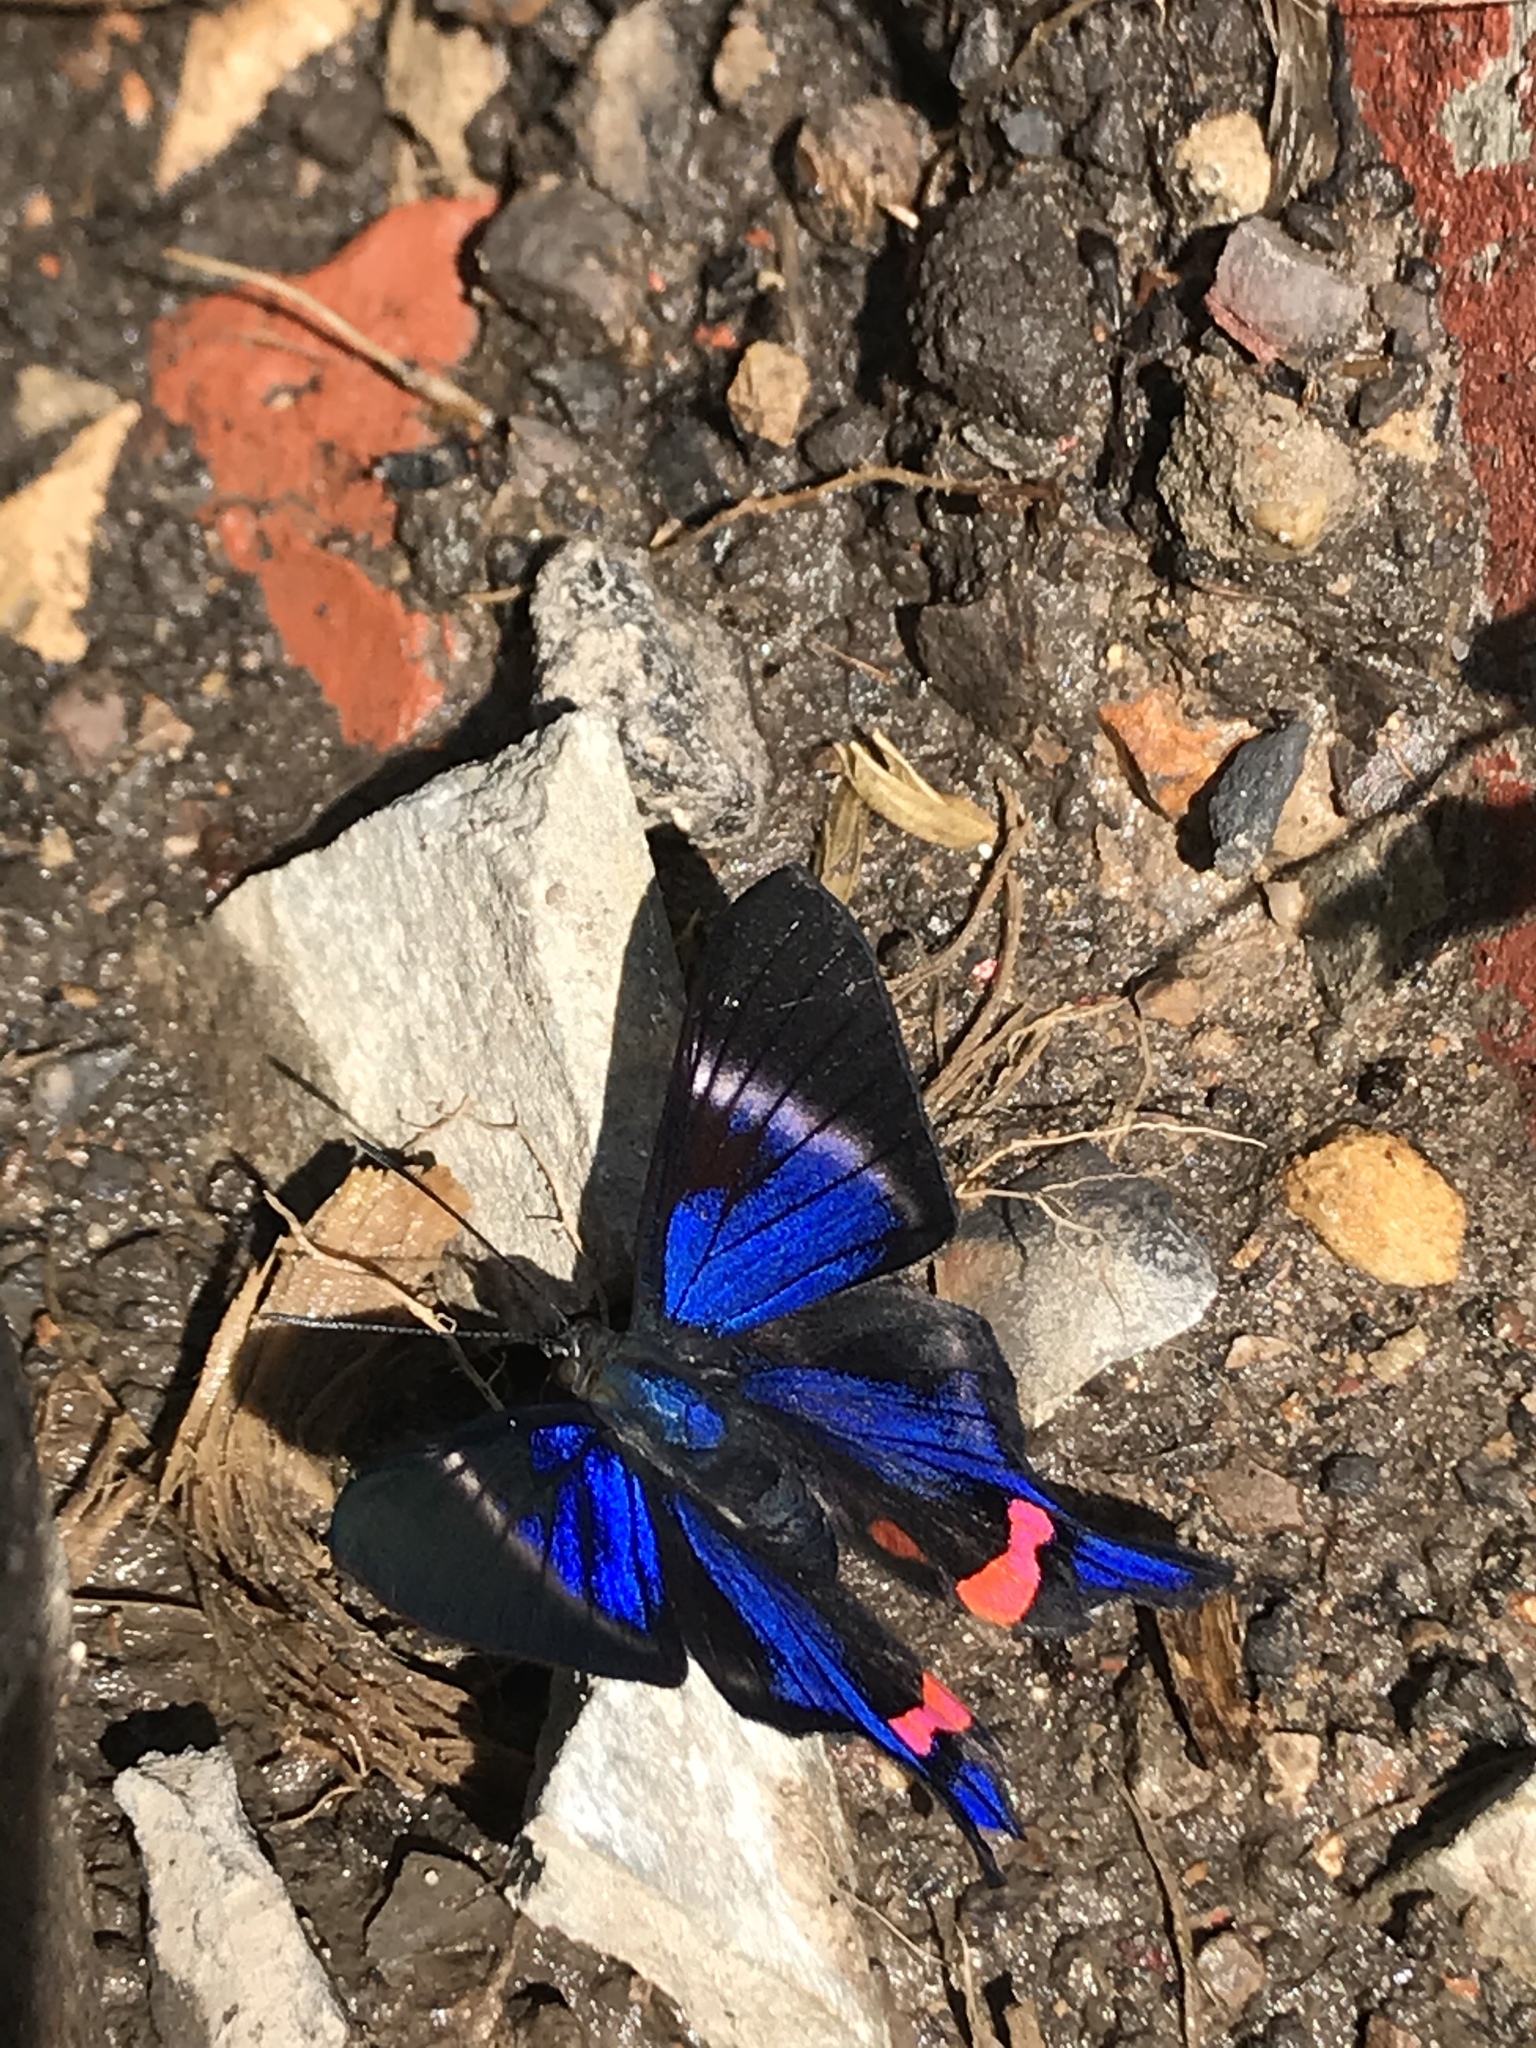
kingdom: Animalia
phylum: Arthropoda
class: Insecta
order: Lepidoptera
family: Riodinidae
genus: Rhetus
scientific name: Rhetus periander
